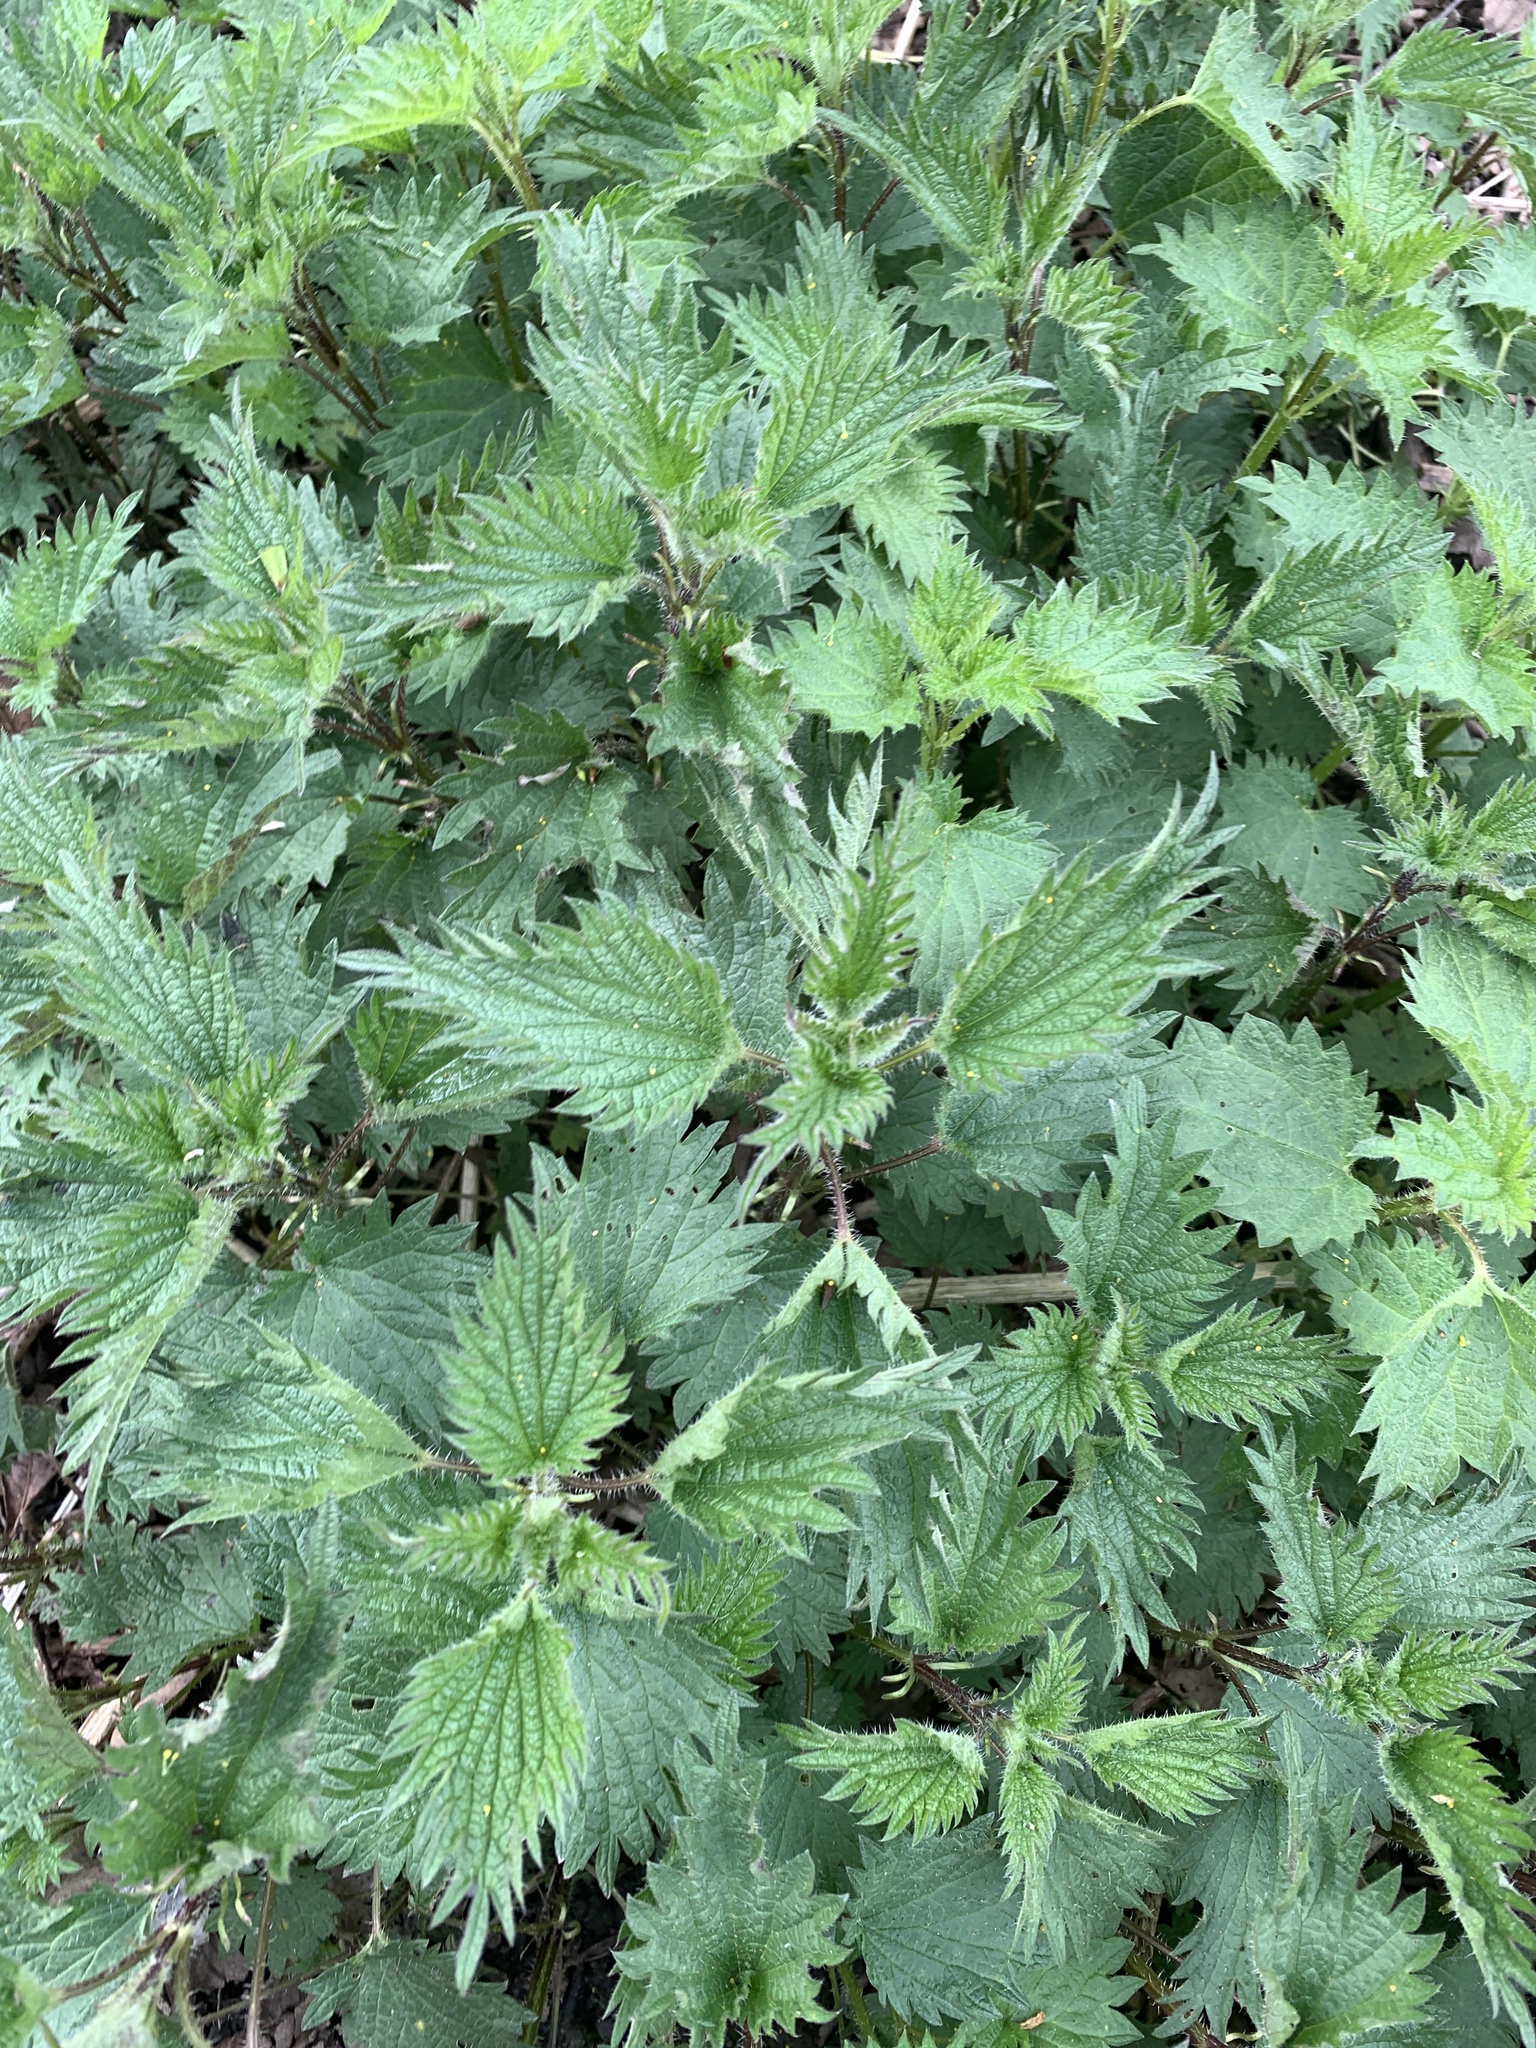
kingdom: Plantae
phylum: Tracheophyta
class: Magnoliopsida
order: Rosales
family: Urticaceae
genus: Urtica
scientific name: Urtica dioica
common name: Common nettle
